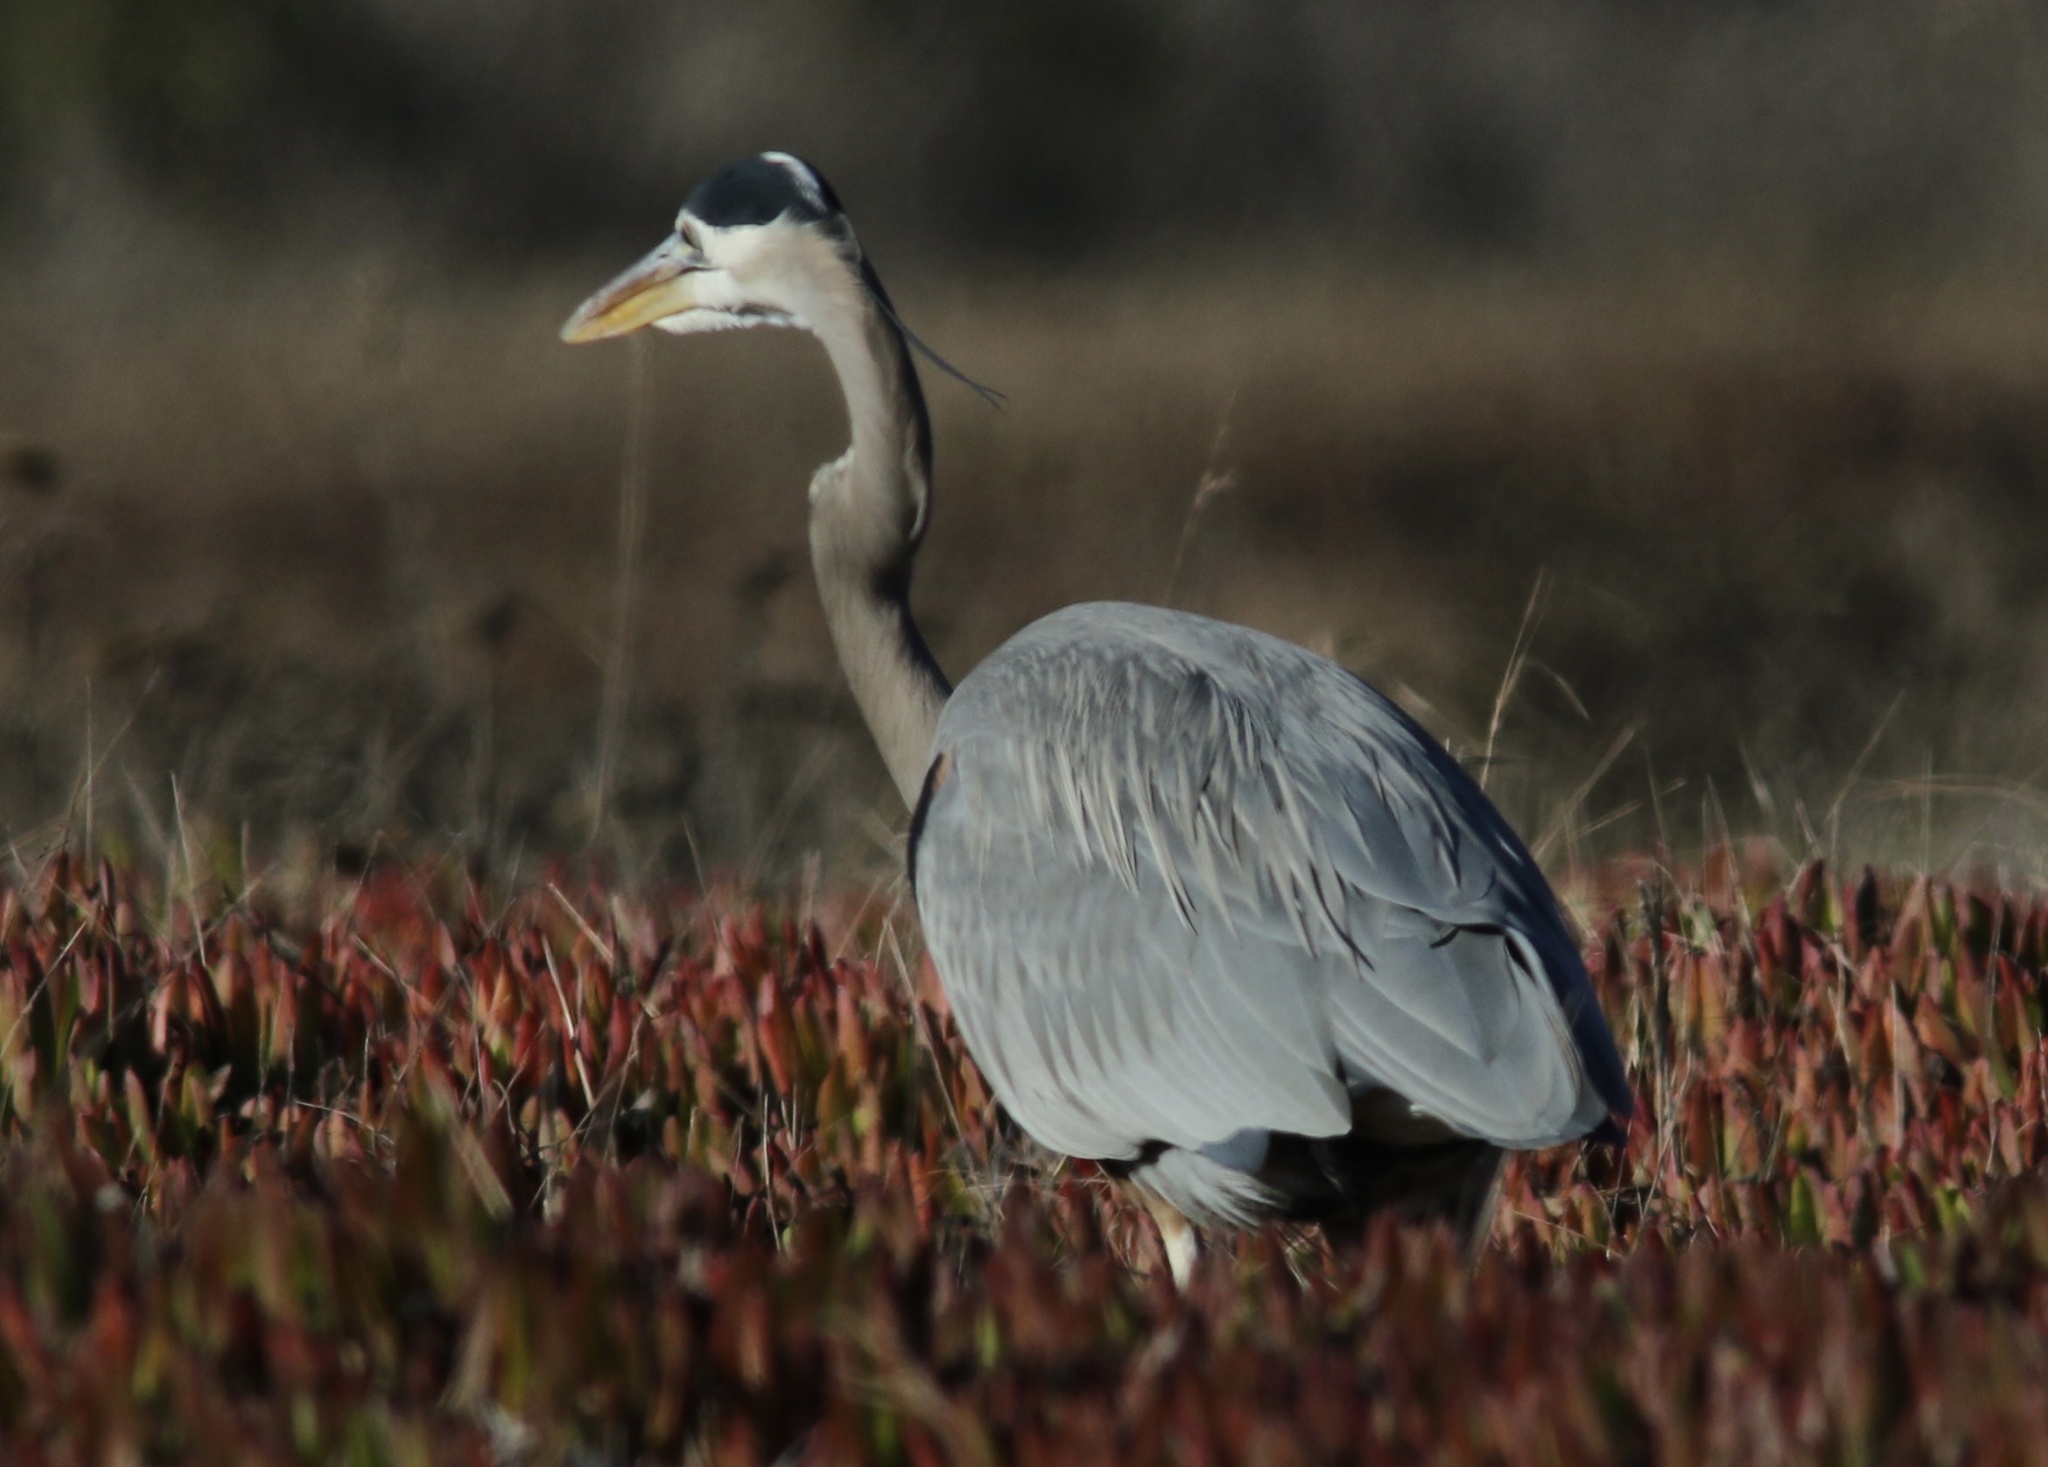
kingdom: Animalia
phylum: Chordata
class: Aves
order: Pelecaniformes
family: Ardeidae
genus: Ardea
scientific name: Ardea herodias
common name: Great blue heron
